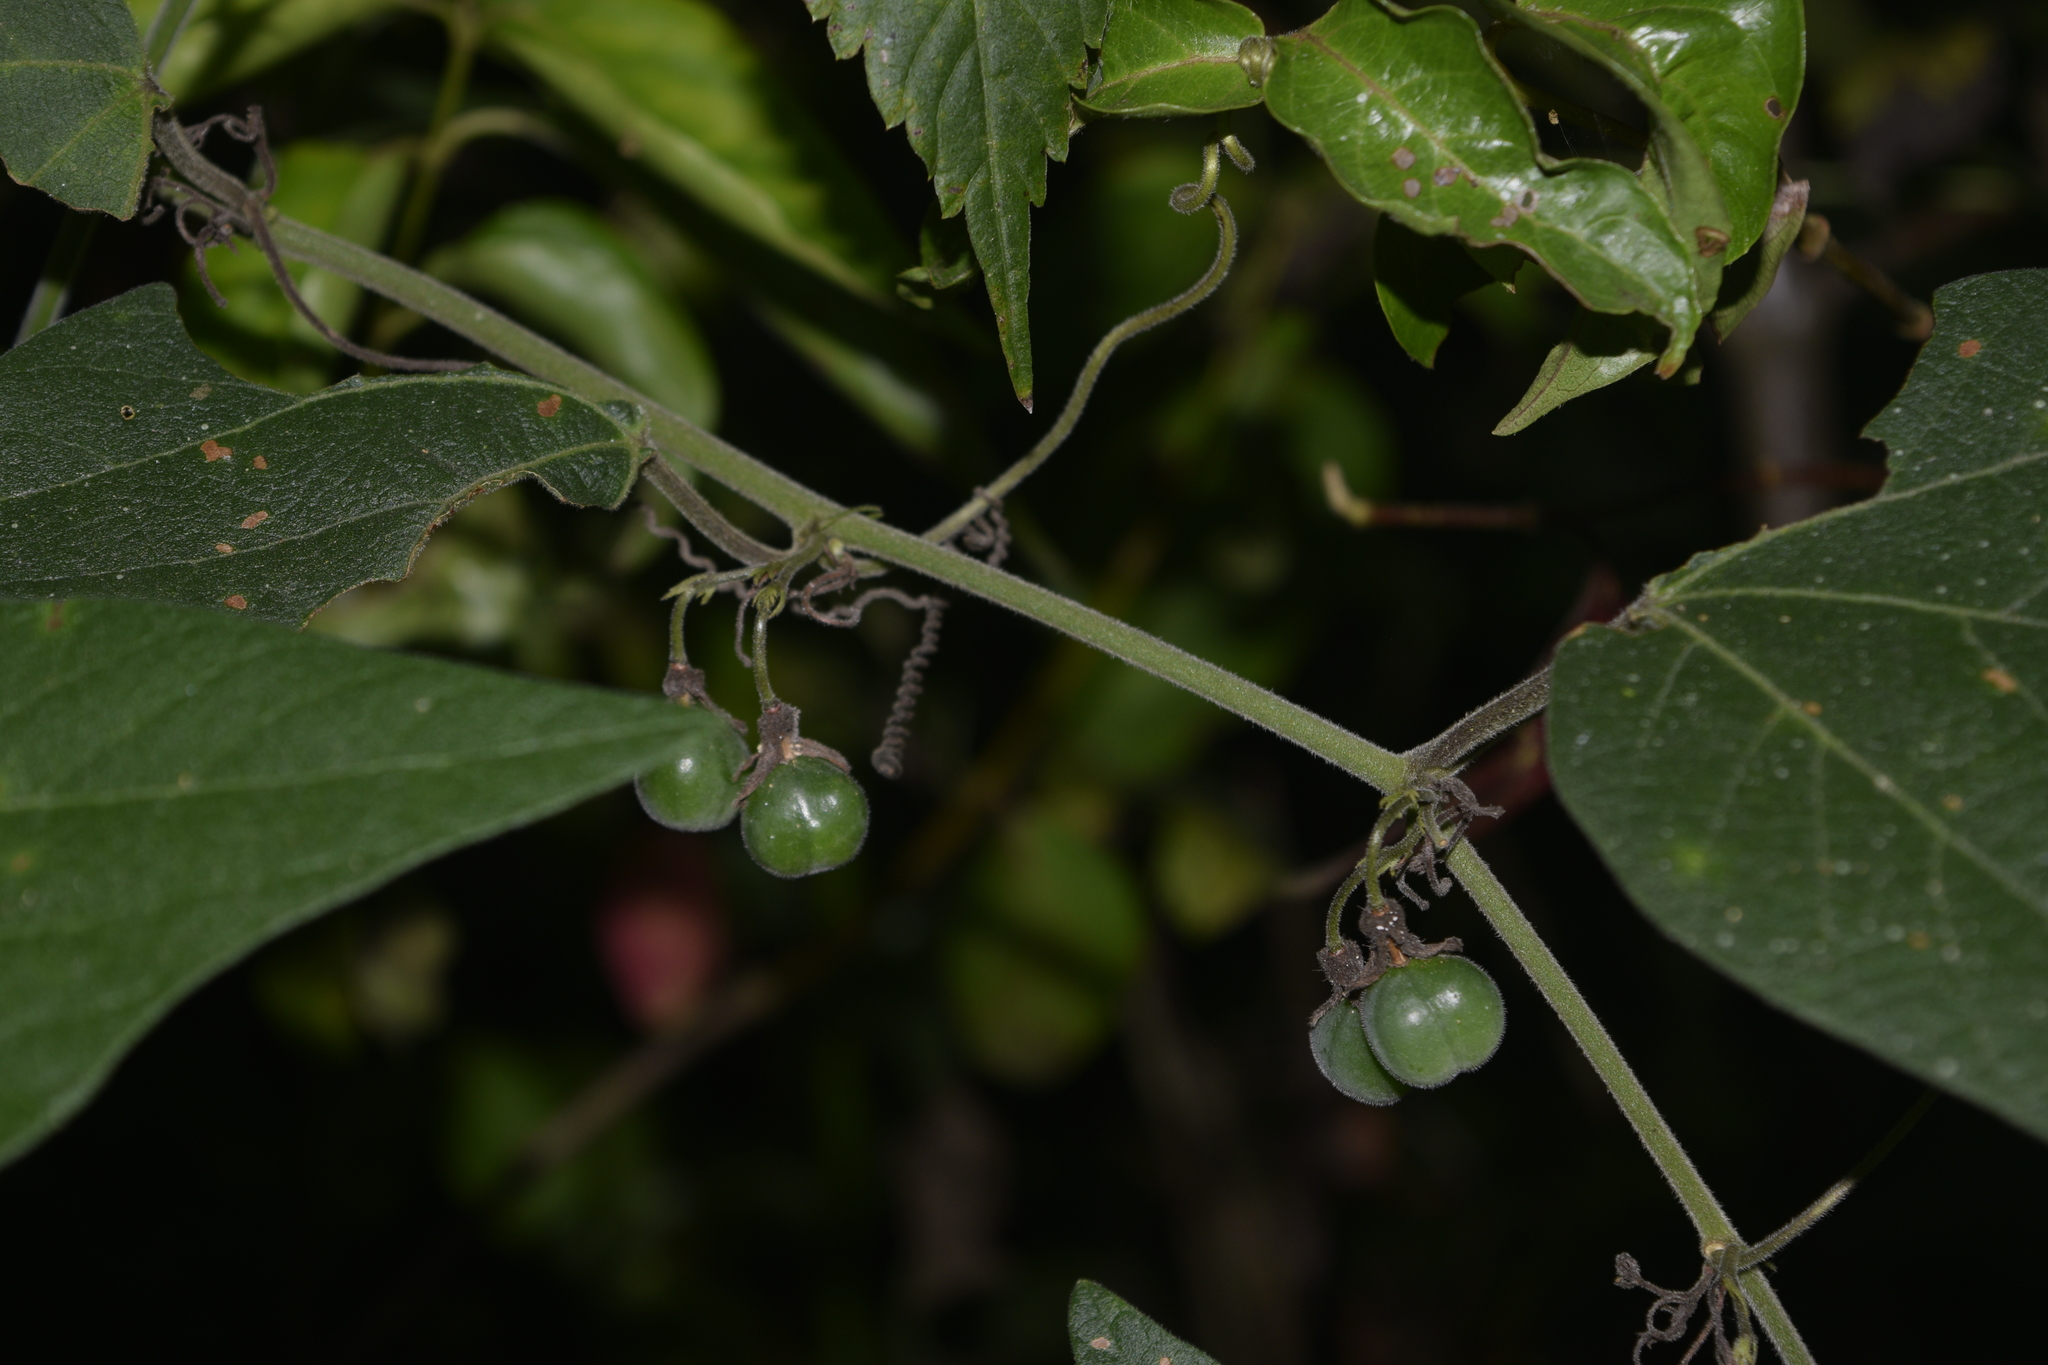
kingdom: Plantae
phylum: Tracheophyta
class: Magnoliopsida
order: Malpighiales
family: Passifloraceae
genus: Passiflora
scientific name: Passiflora sexflora
